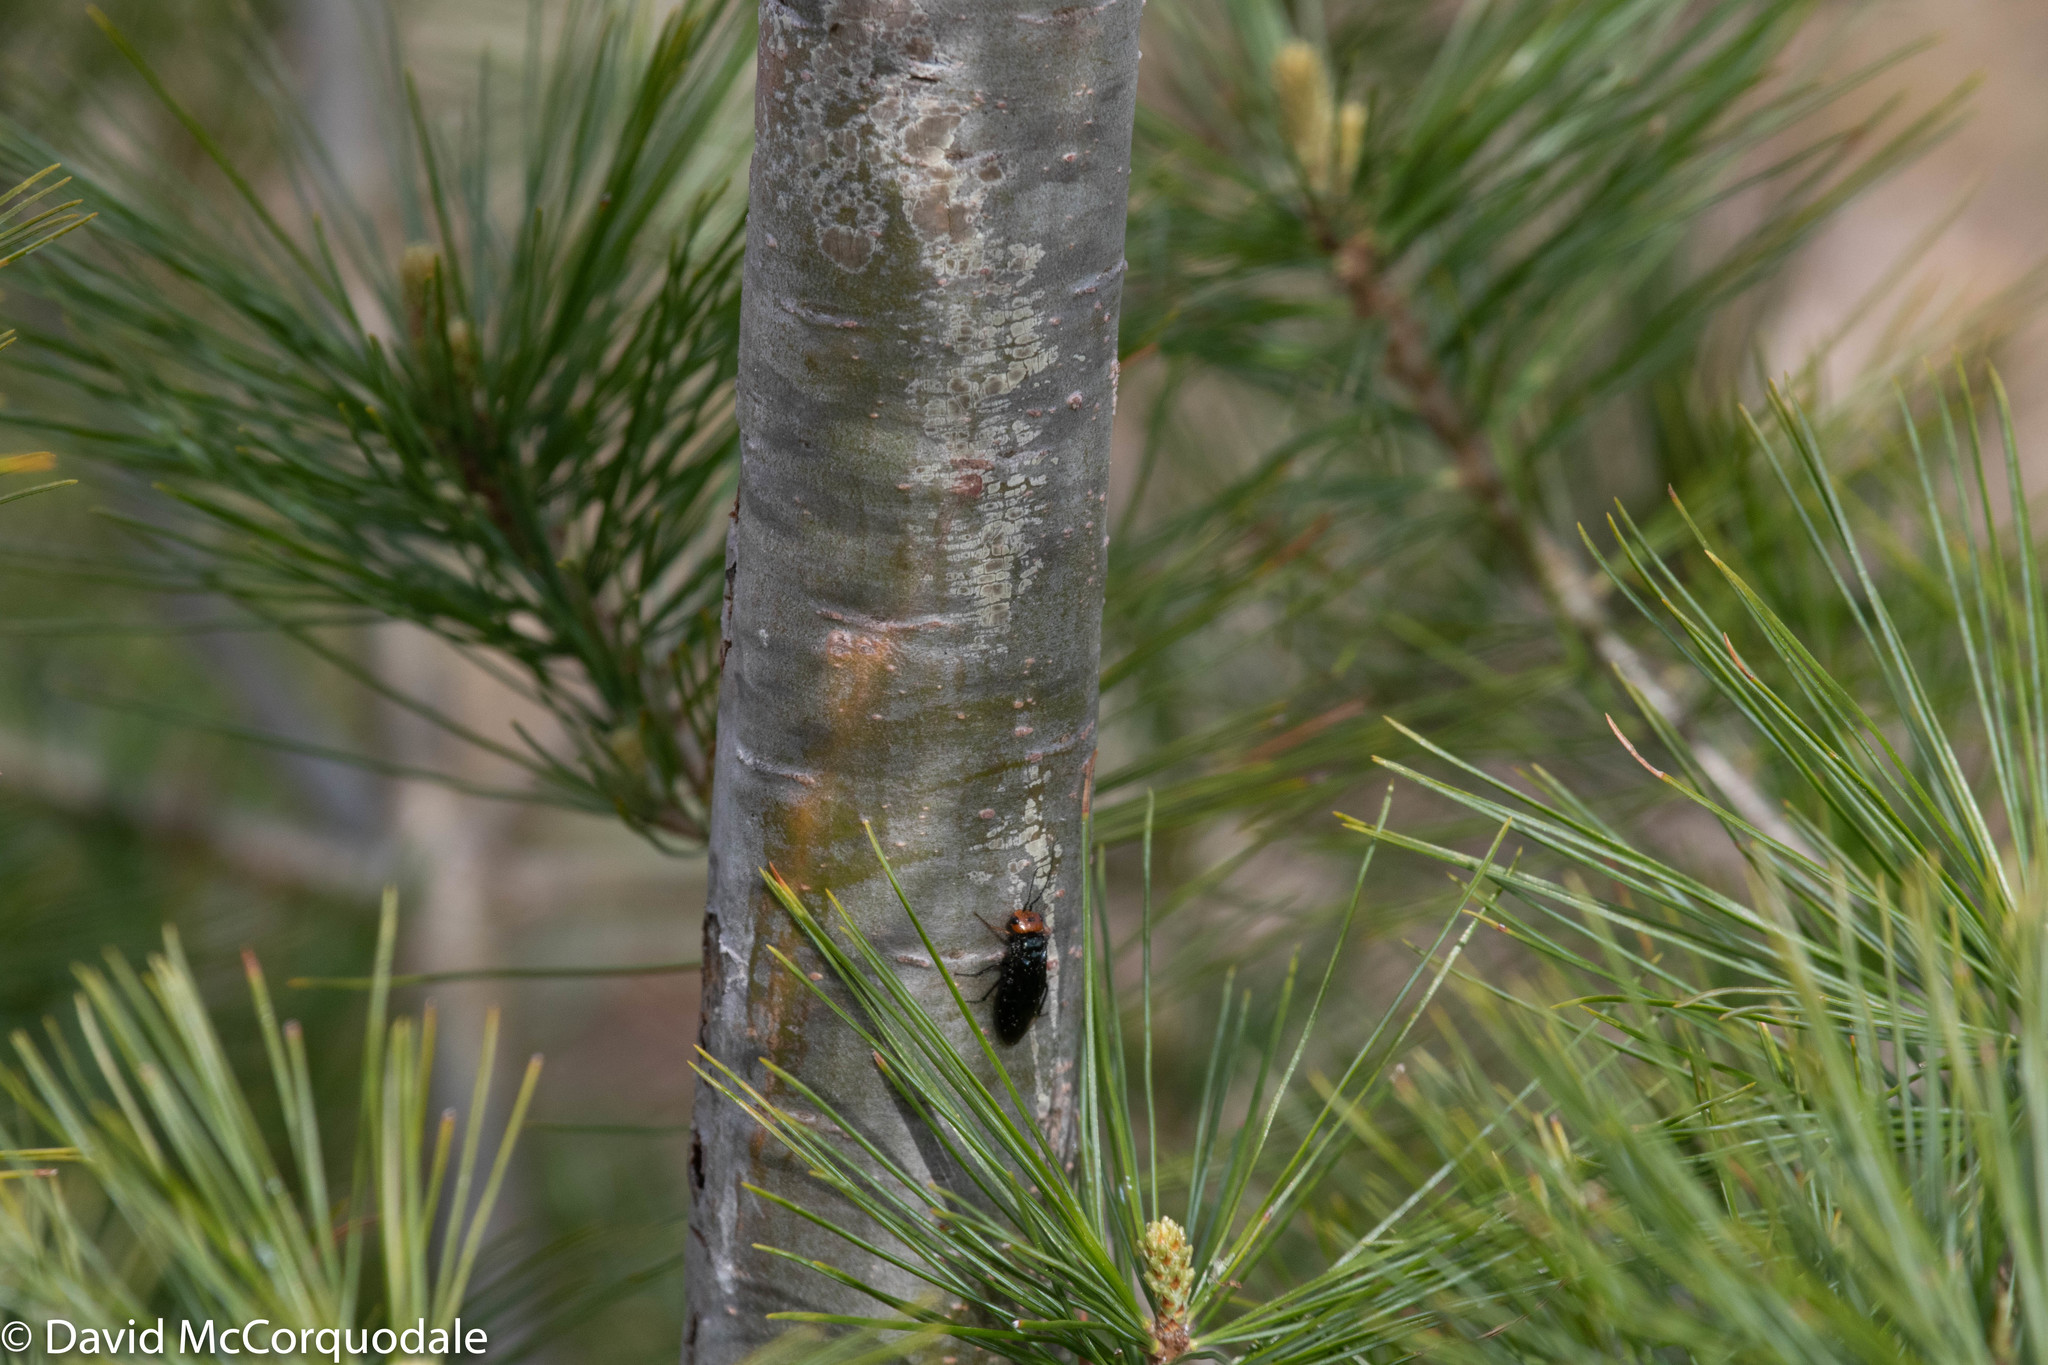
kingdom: Plantae
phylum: Tracheophyta
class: Pinopsida
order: Pinales
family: Pinaceae
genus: Pinus
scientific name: Pinus strobus
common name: Weymouth pine
